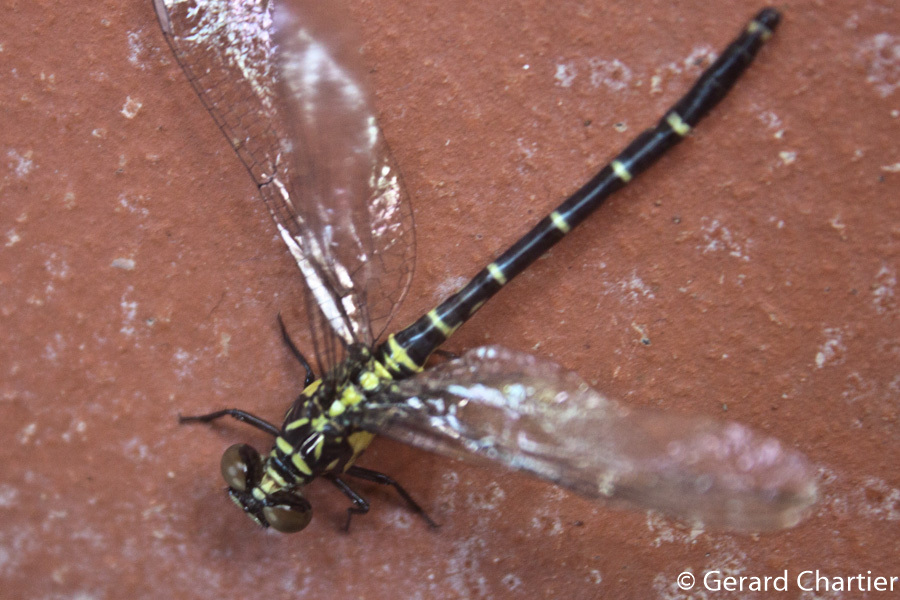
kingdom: Animalia
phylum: Arthropoda
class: Insecta
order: Odonata
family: Gomphidae
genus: Burmagomphus
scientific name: Burmagomphus asahinai
